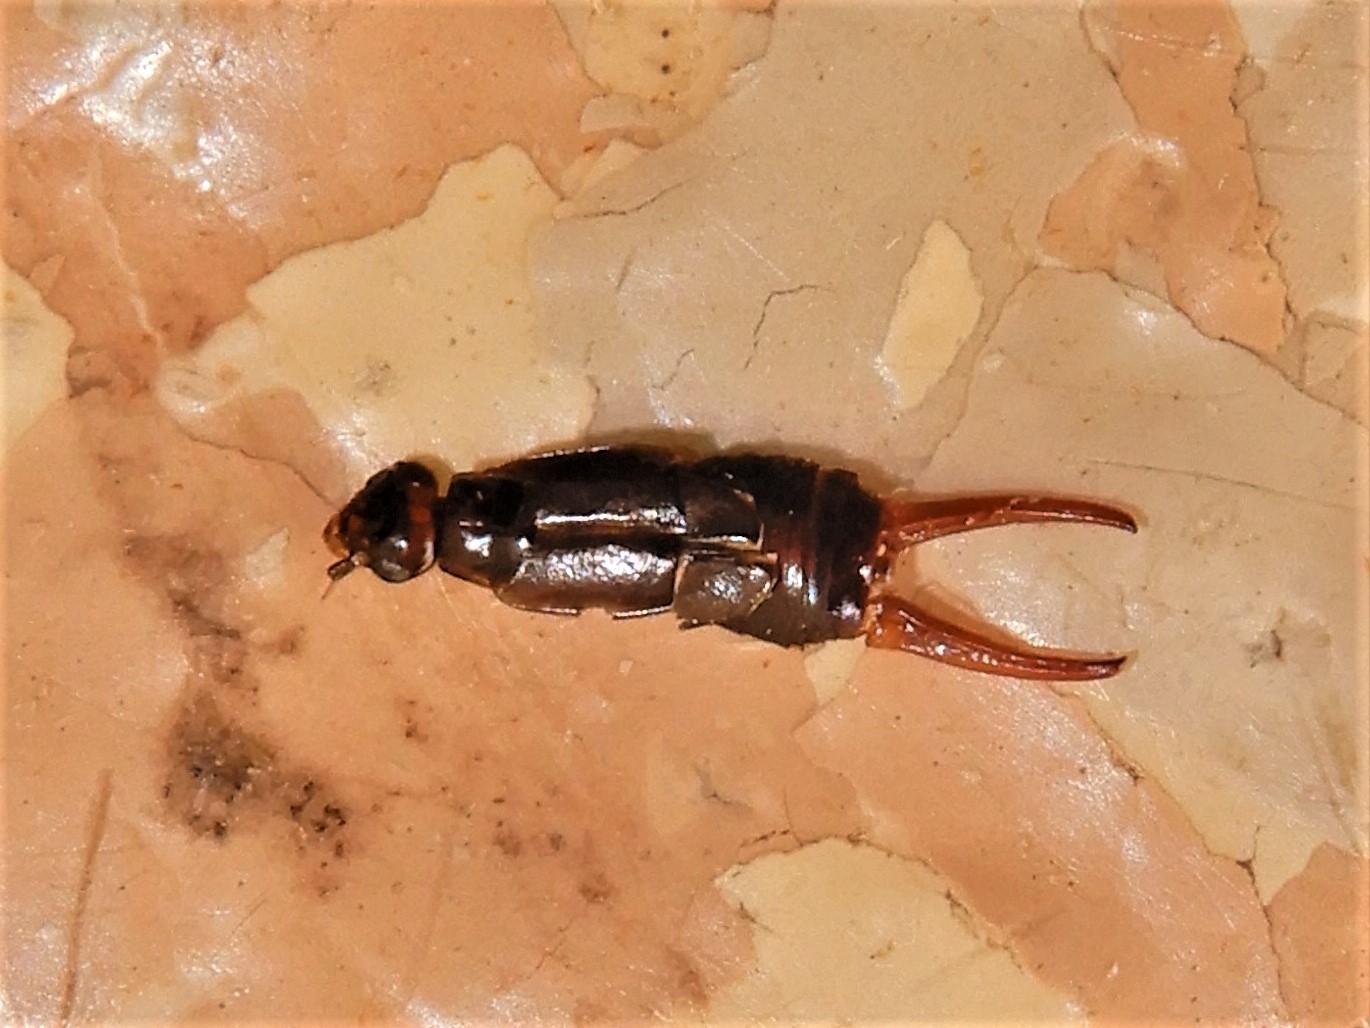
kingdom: Animalia
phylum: Arthropoda
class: Insecta
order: Dermaptera
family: Spongiphoridae
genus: Nesogaster
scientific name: Nesogaster halli
